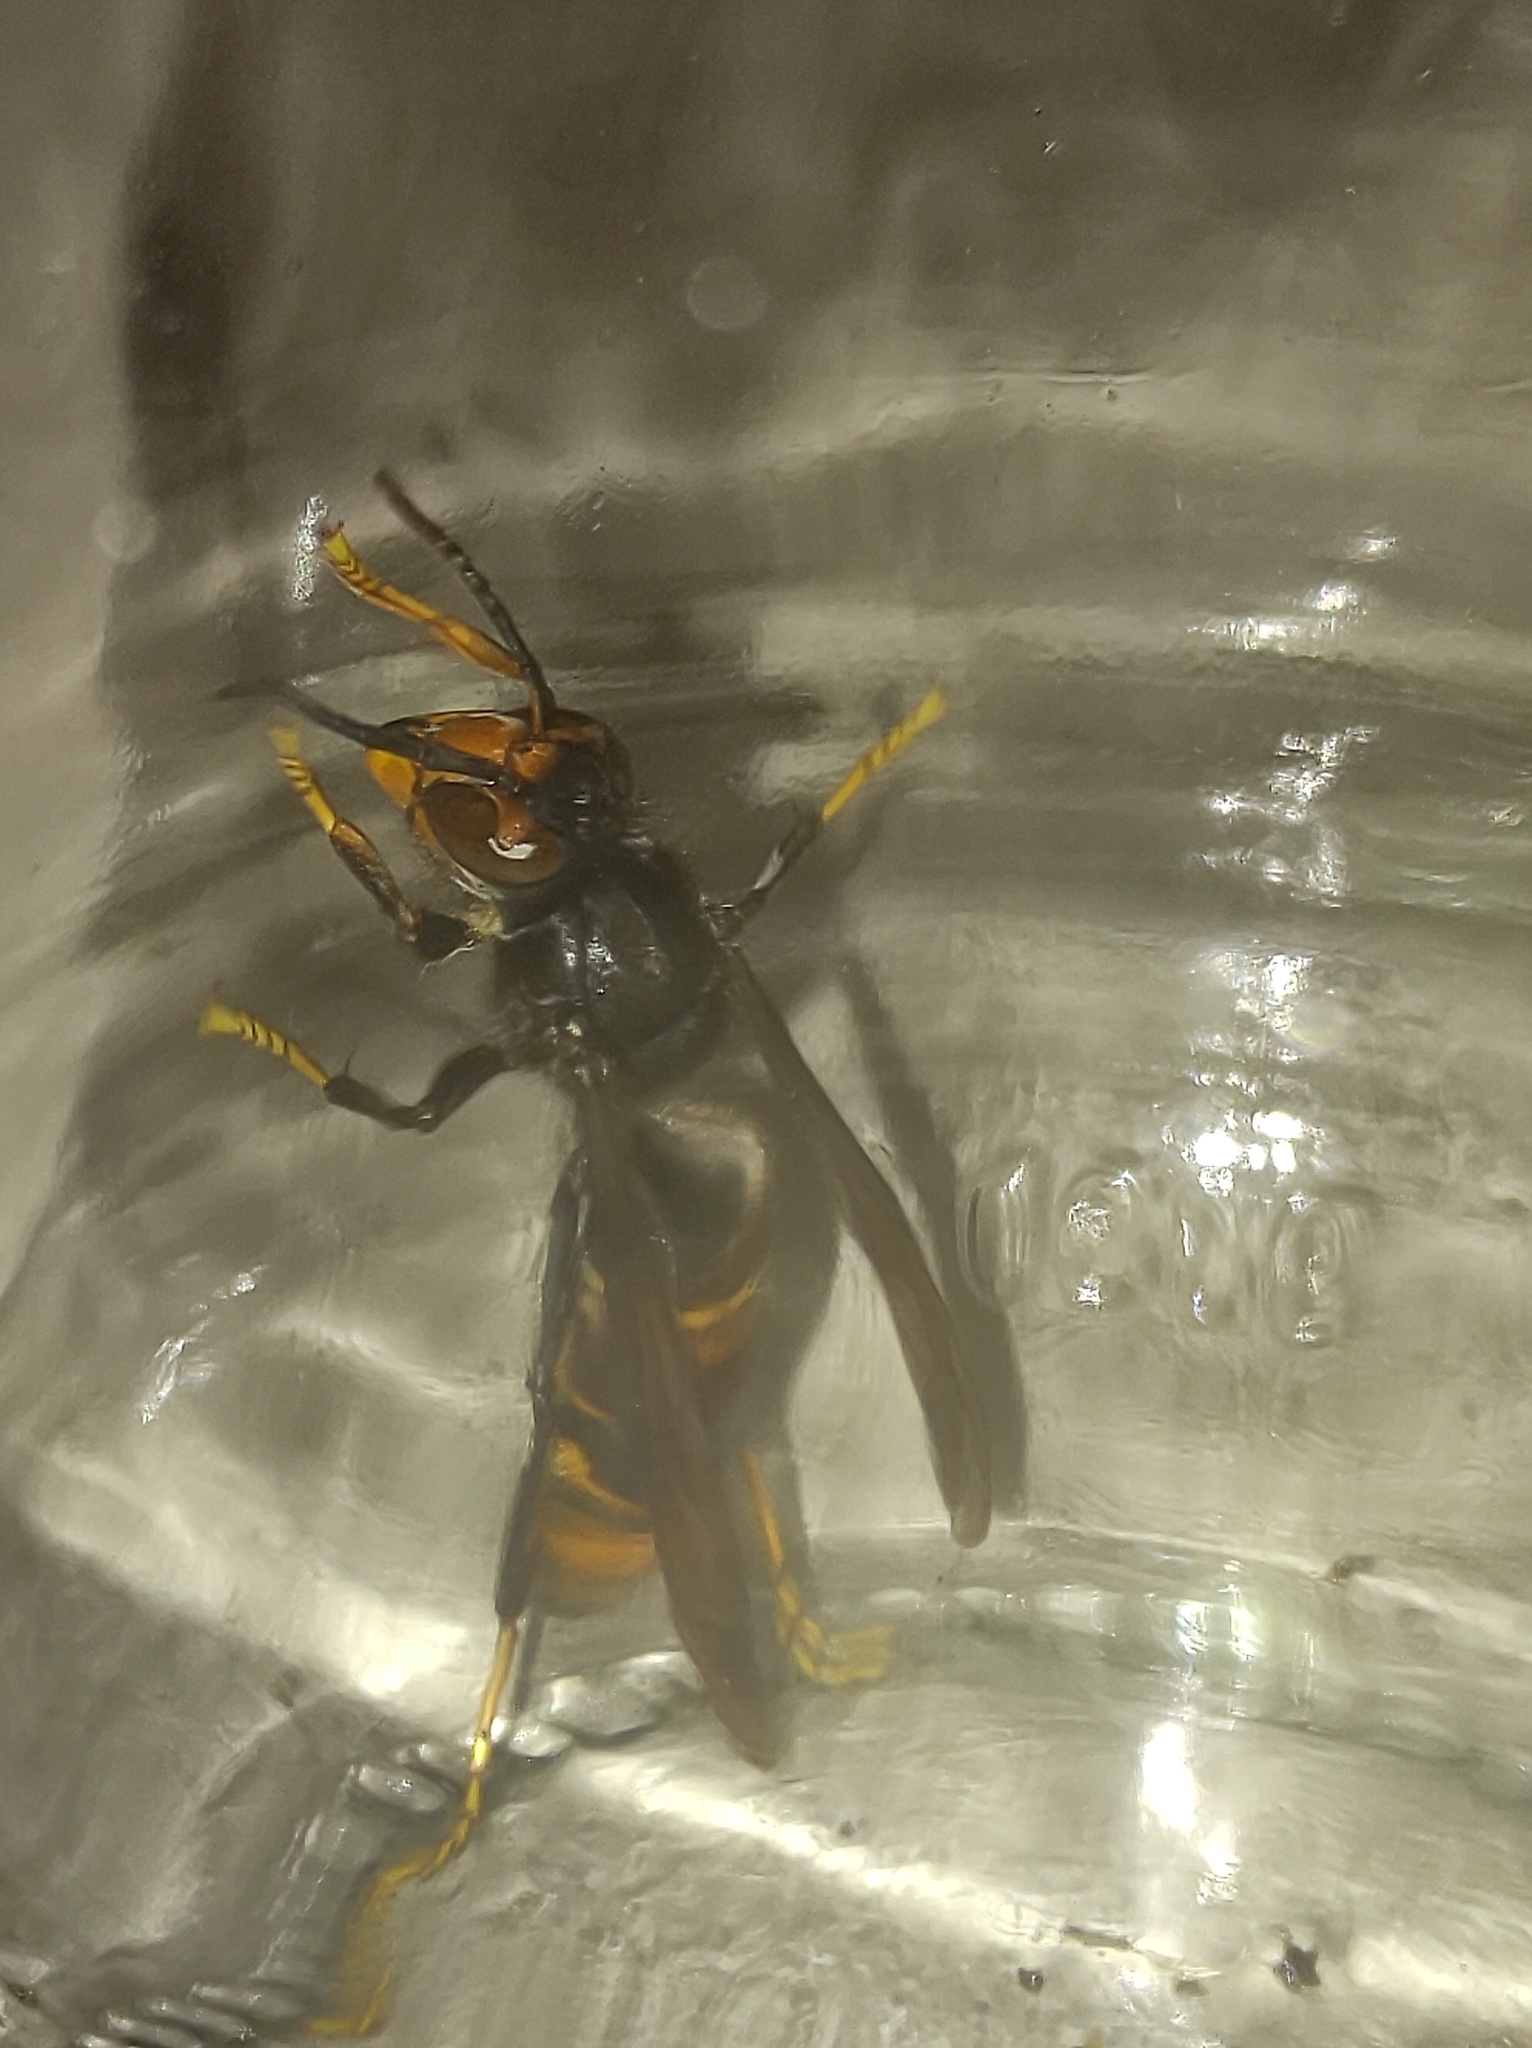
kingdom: Animalia
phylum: Arthropoda
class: Insecta
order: Hymenoptera
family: Vespidae
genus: Vespa
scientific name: Vespa velutina
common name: Asian hornet
